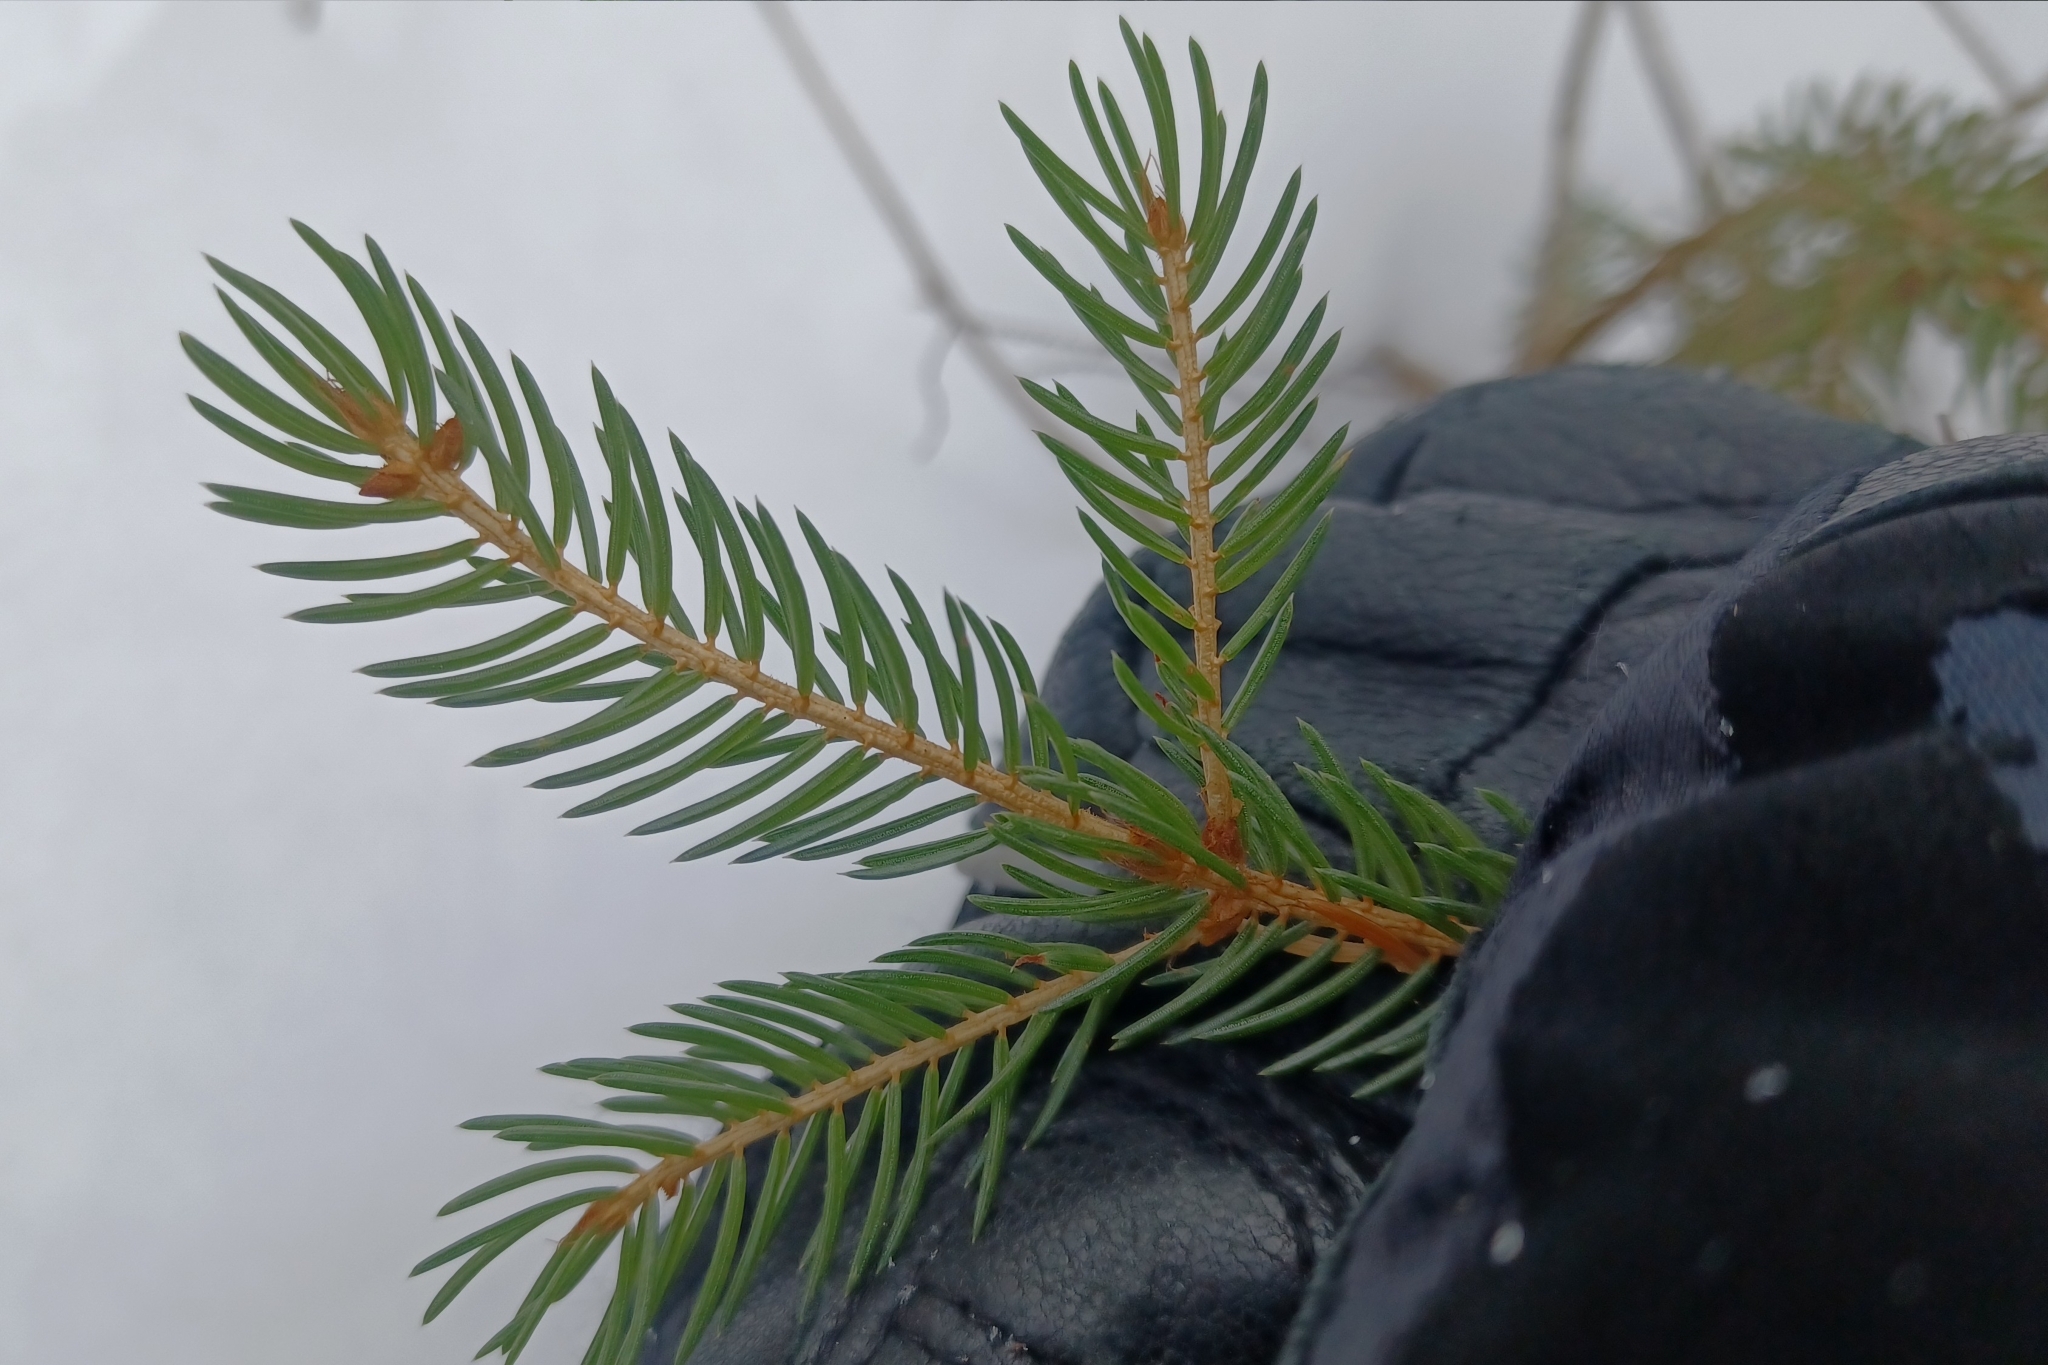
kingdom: Plantae
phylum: Tracheophyta
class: Pinopsida
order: Pinales
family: Pinaceae
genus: Picea
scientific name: Picea rubens
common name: Red spruce
